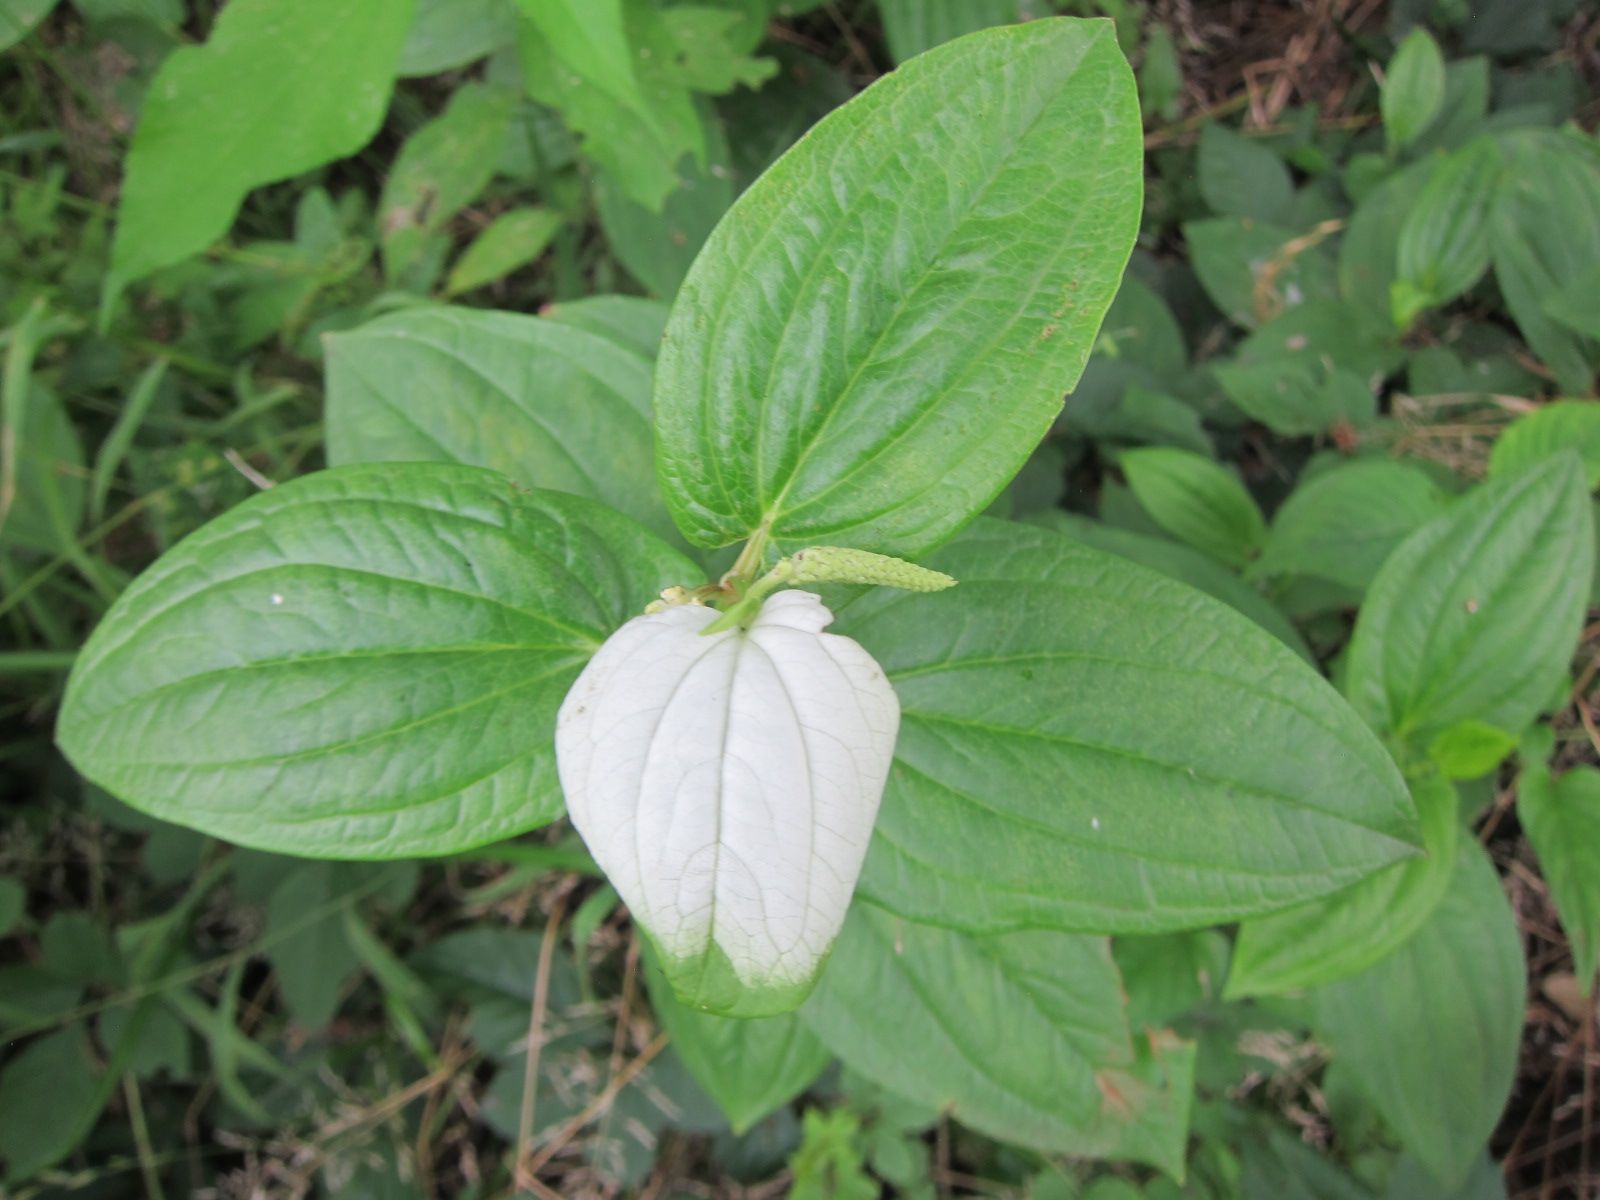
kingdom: Plantae
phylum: Tracheophyta
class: Magnoliopsida
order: Piperales
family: Saururaceae
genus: Saururus
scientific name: Saururus chinensis
